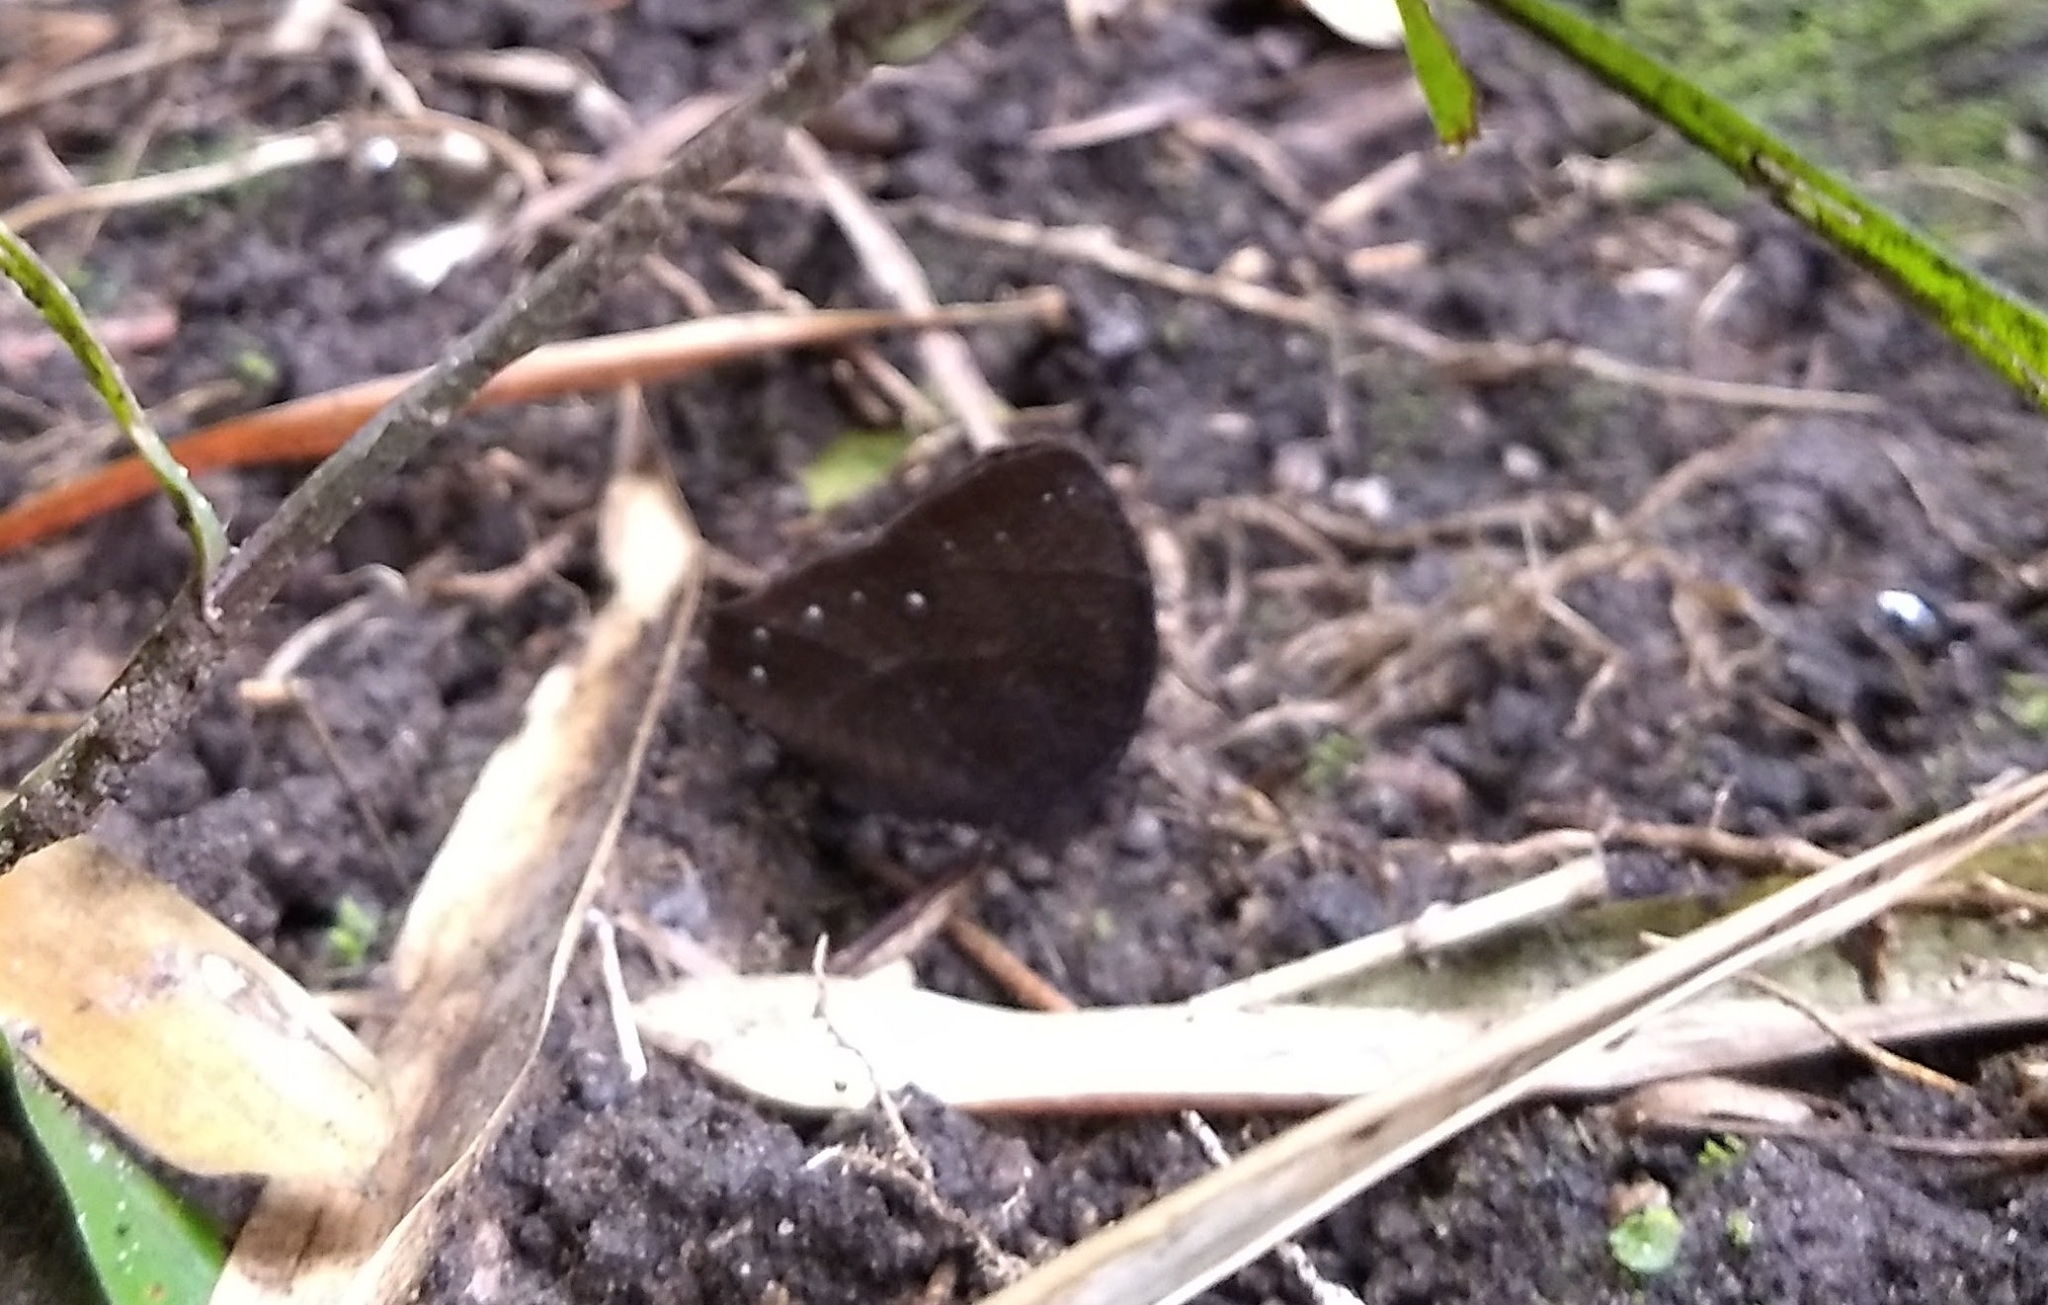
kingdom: Animalia
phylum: Arthropoda
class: Insecta
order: Lepidoptera
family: Nymphalidae
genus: Melanitis
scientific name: Melanitis phedima
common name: Dark evening brown
